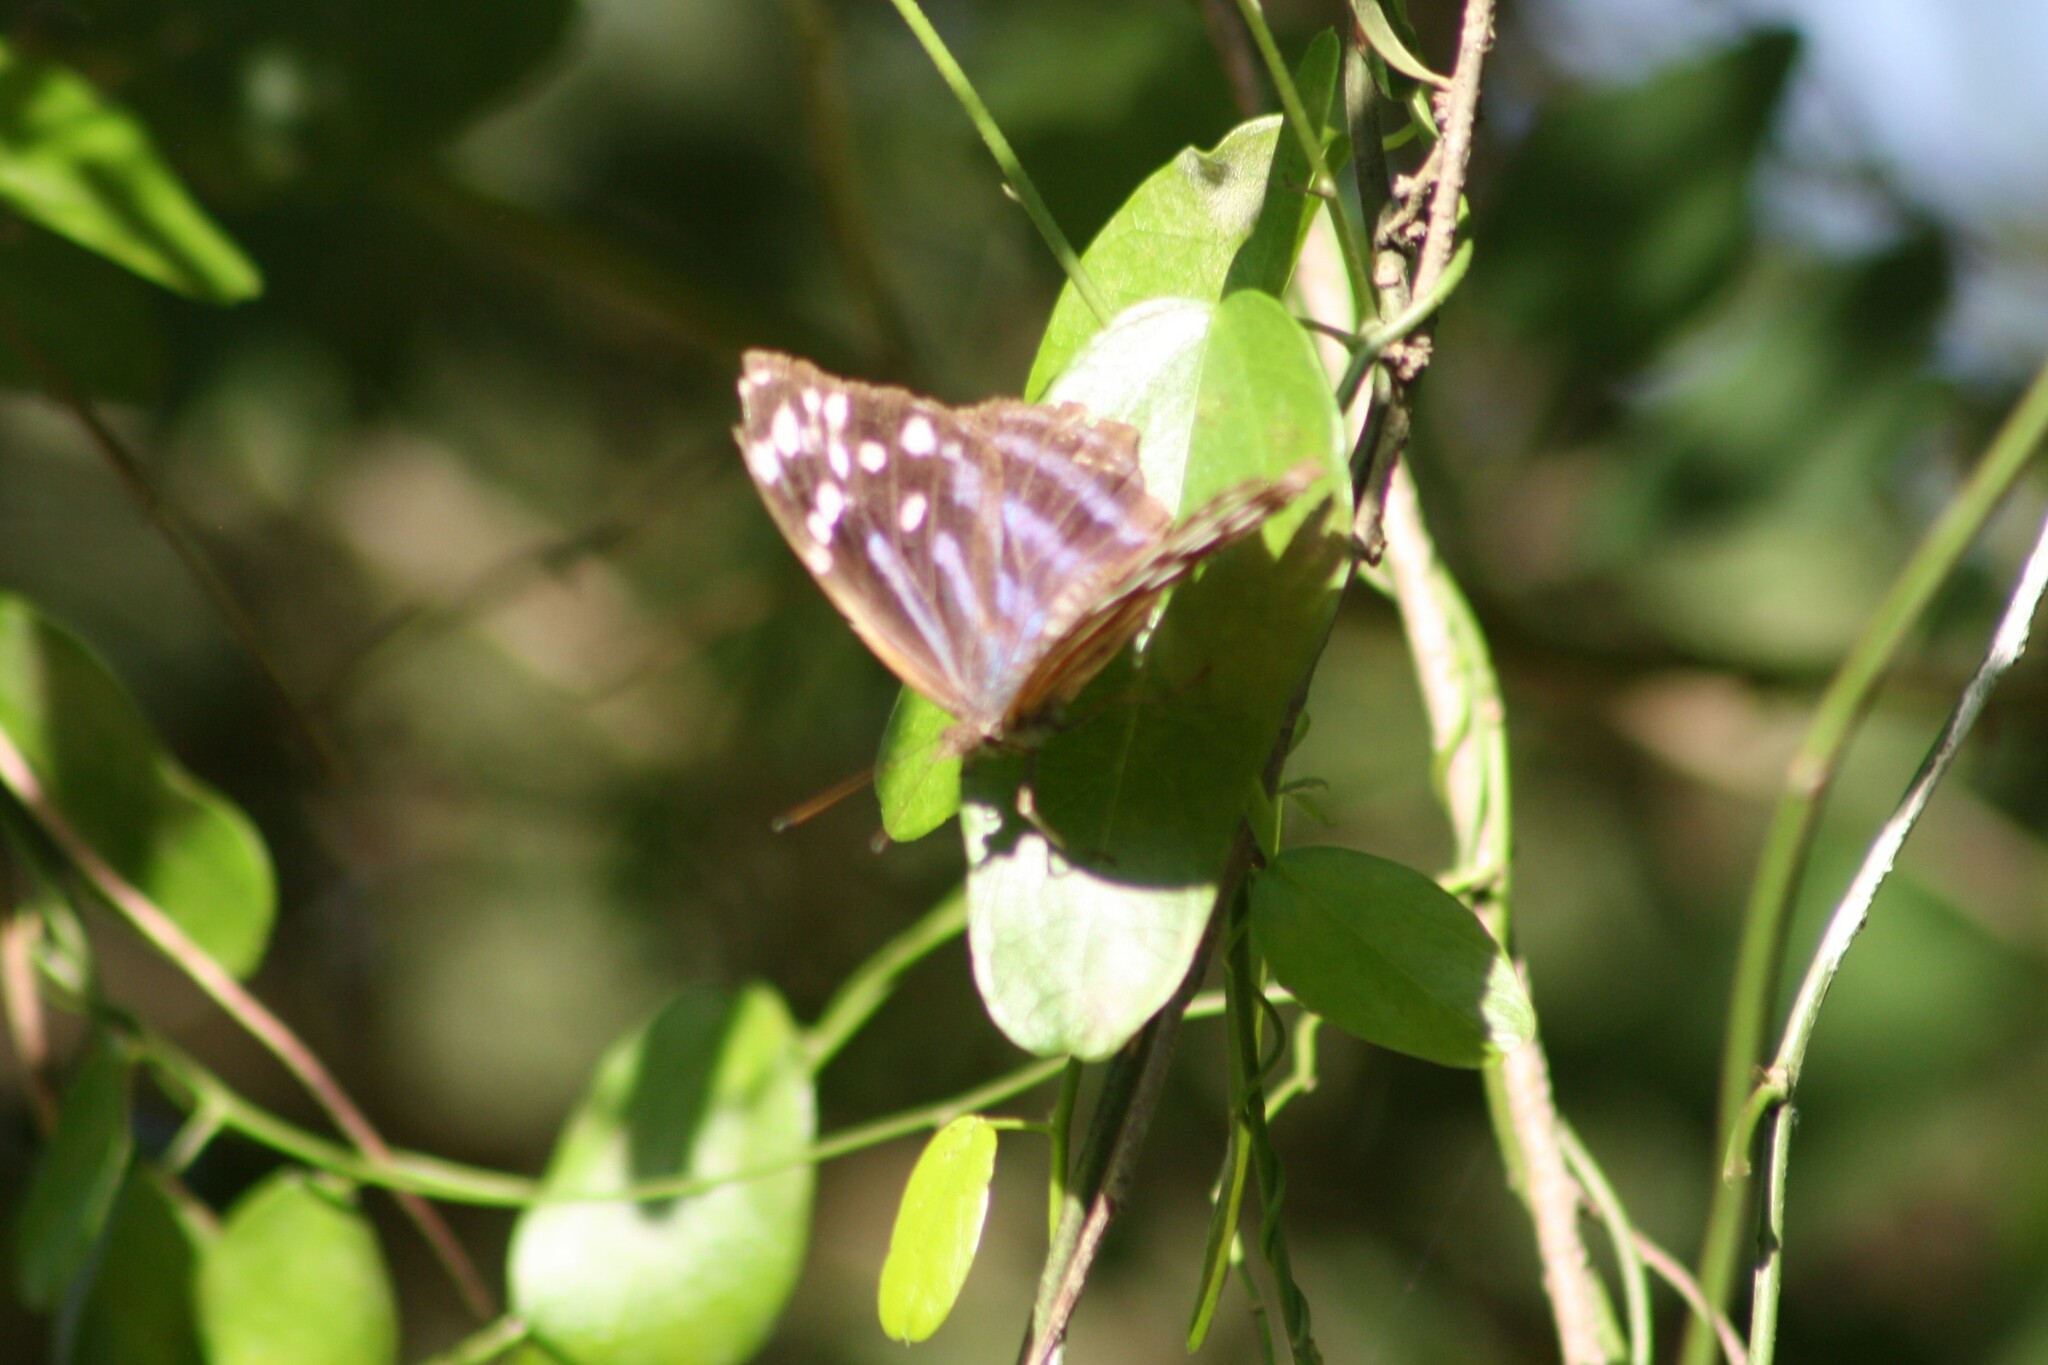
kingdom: Animalia
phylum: Arthropoda
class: Insecta
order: Lepidoptera
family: Nymphalidae
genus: Myscelia
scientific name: Myscelia ethusa
